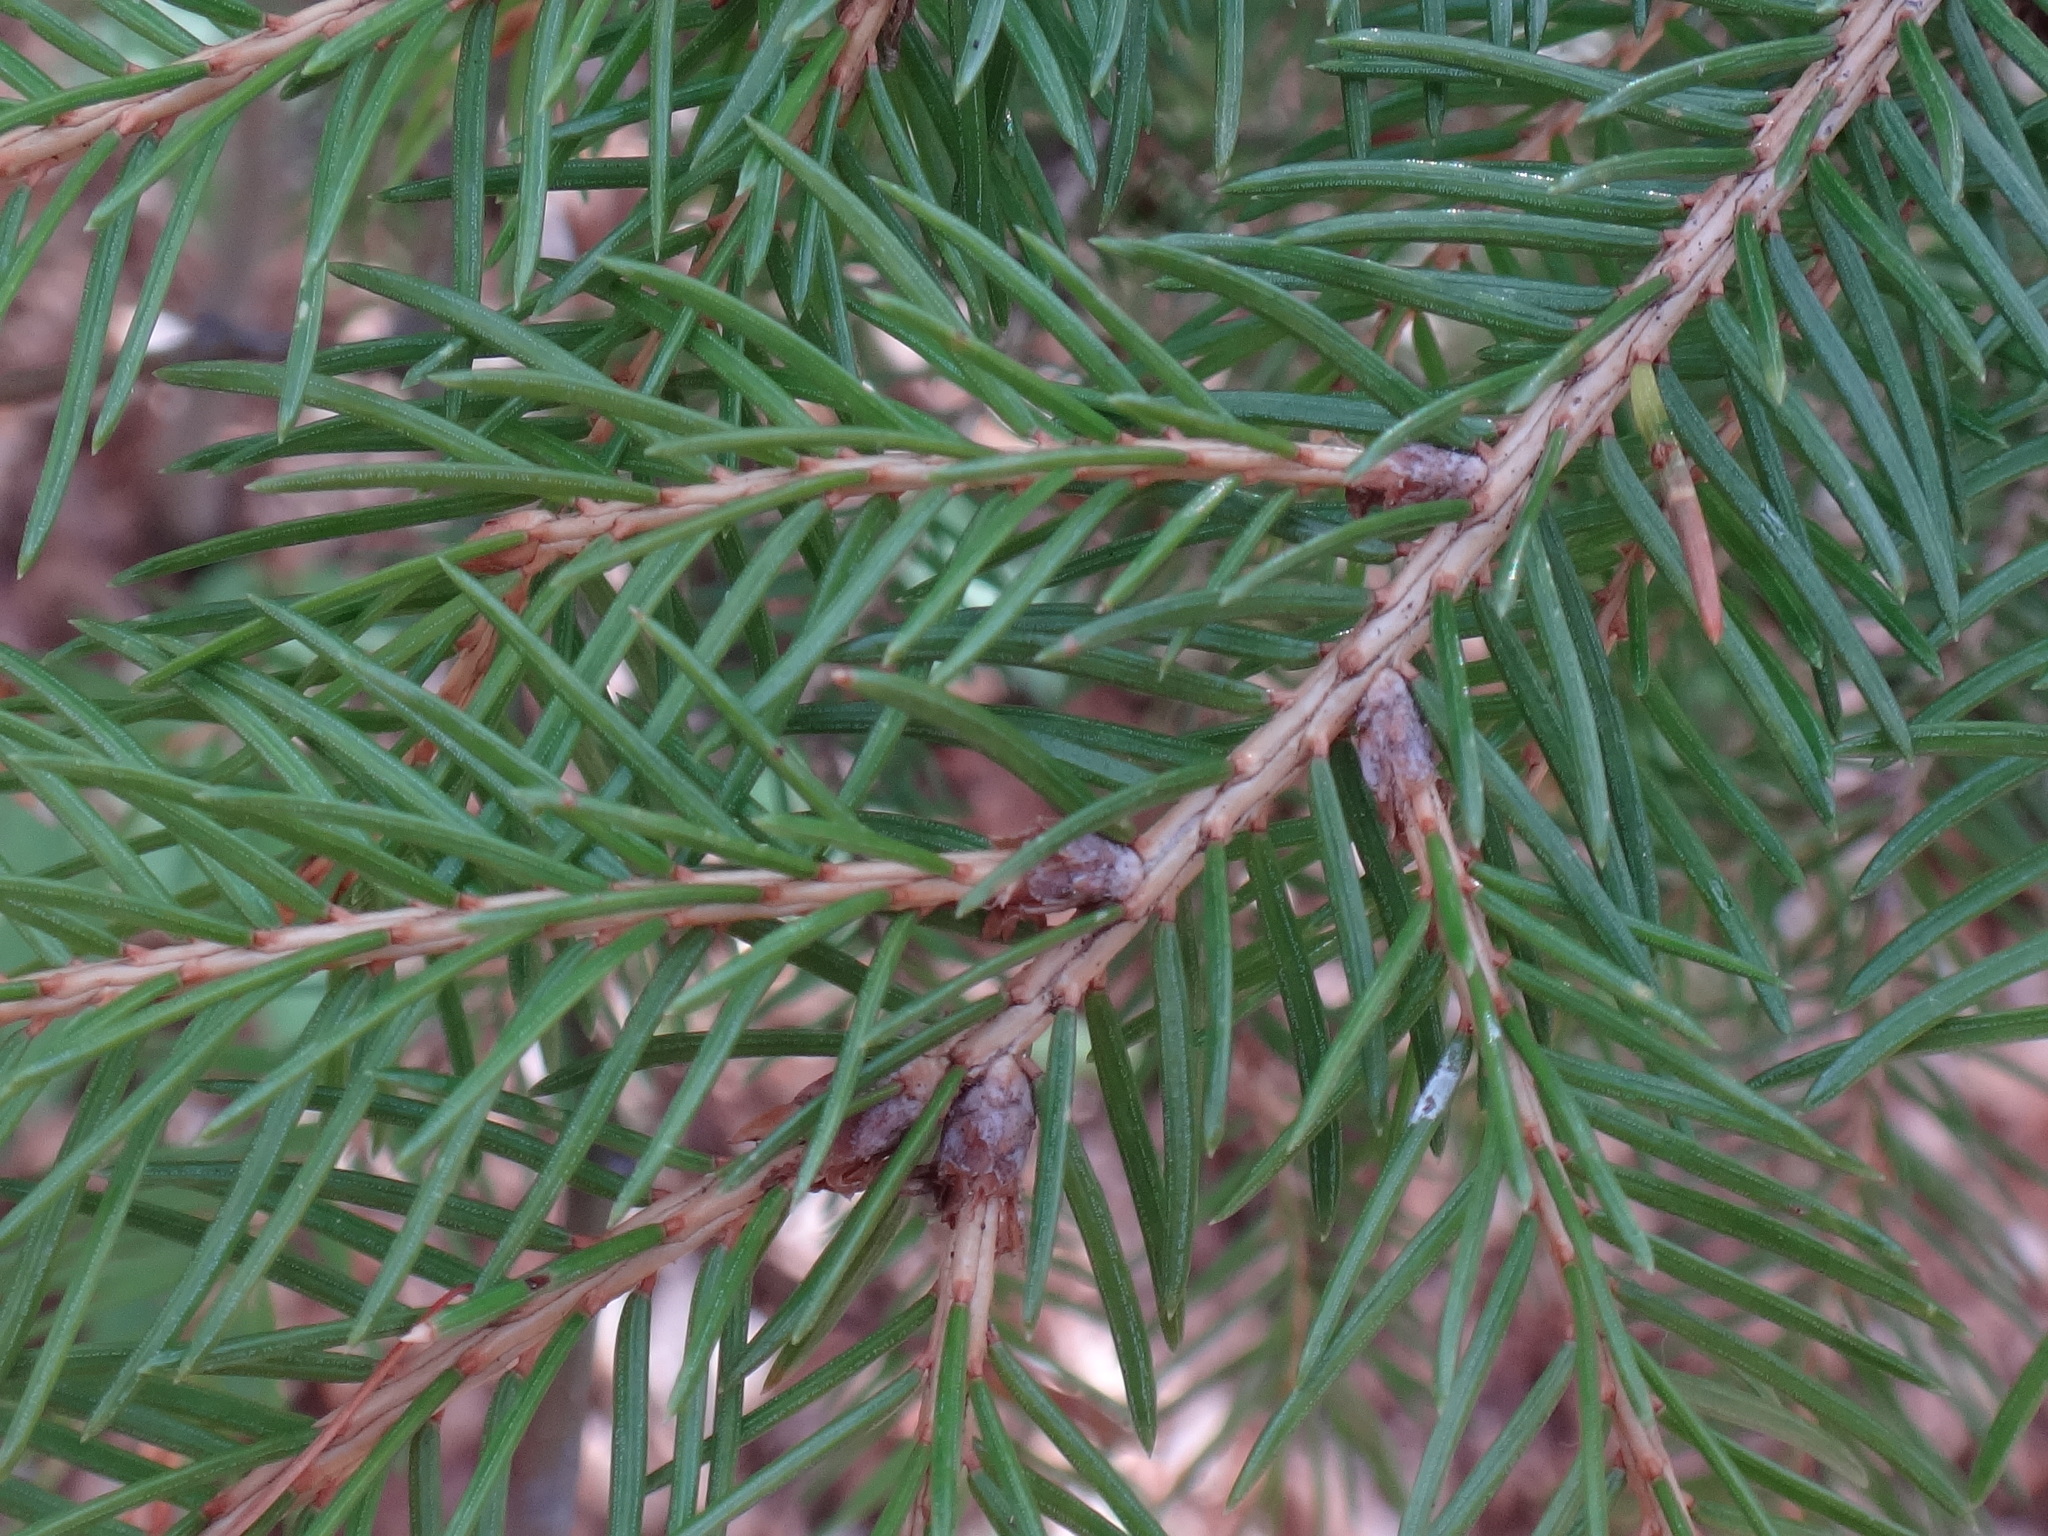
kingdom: Plantae
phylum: Tracheophyta
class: Pinopsida
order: Pinales
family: Pinaceae
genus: Picea
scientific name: Picea abies
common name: Norway spruce
